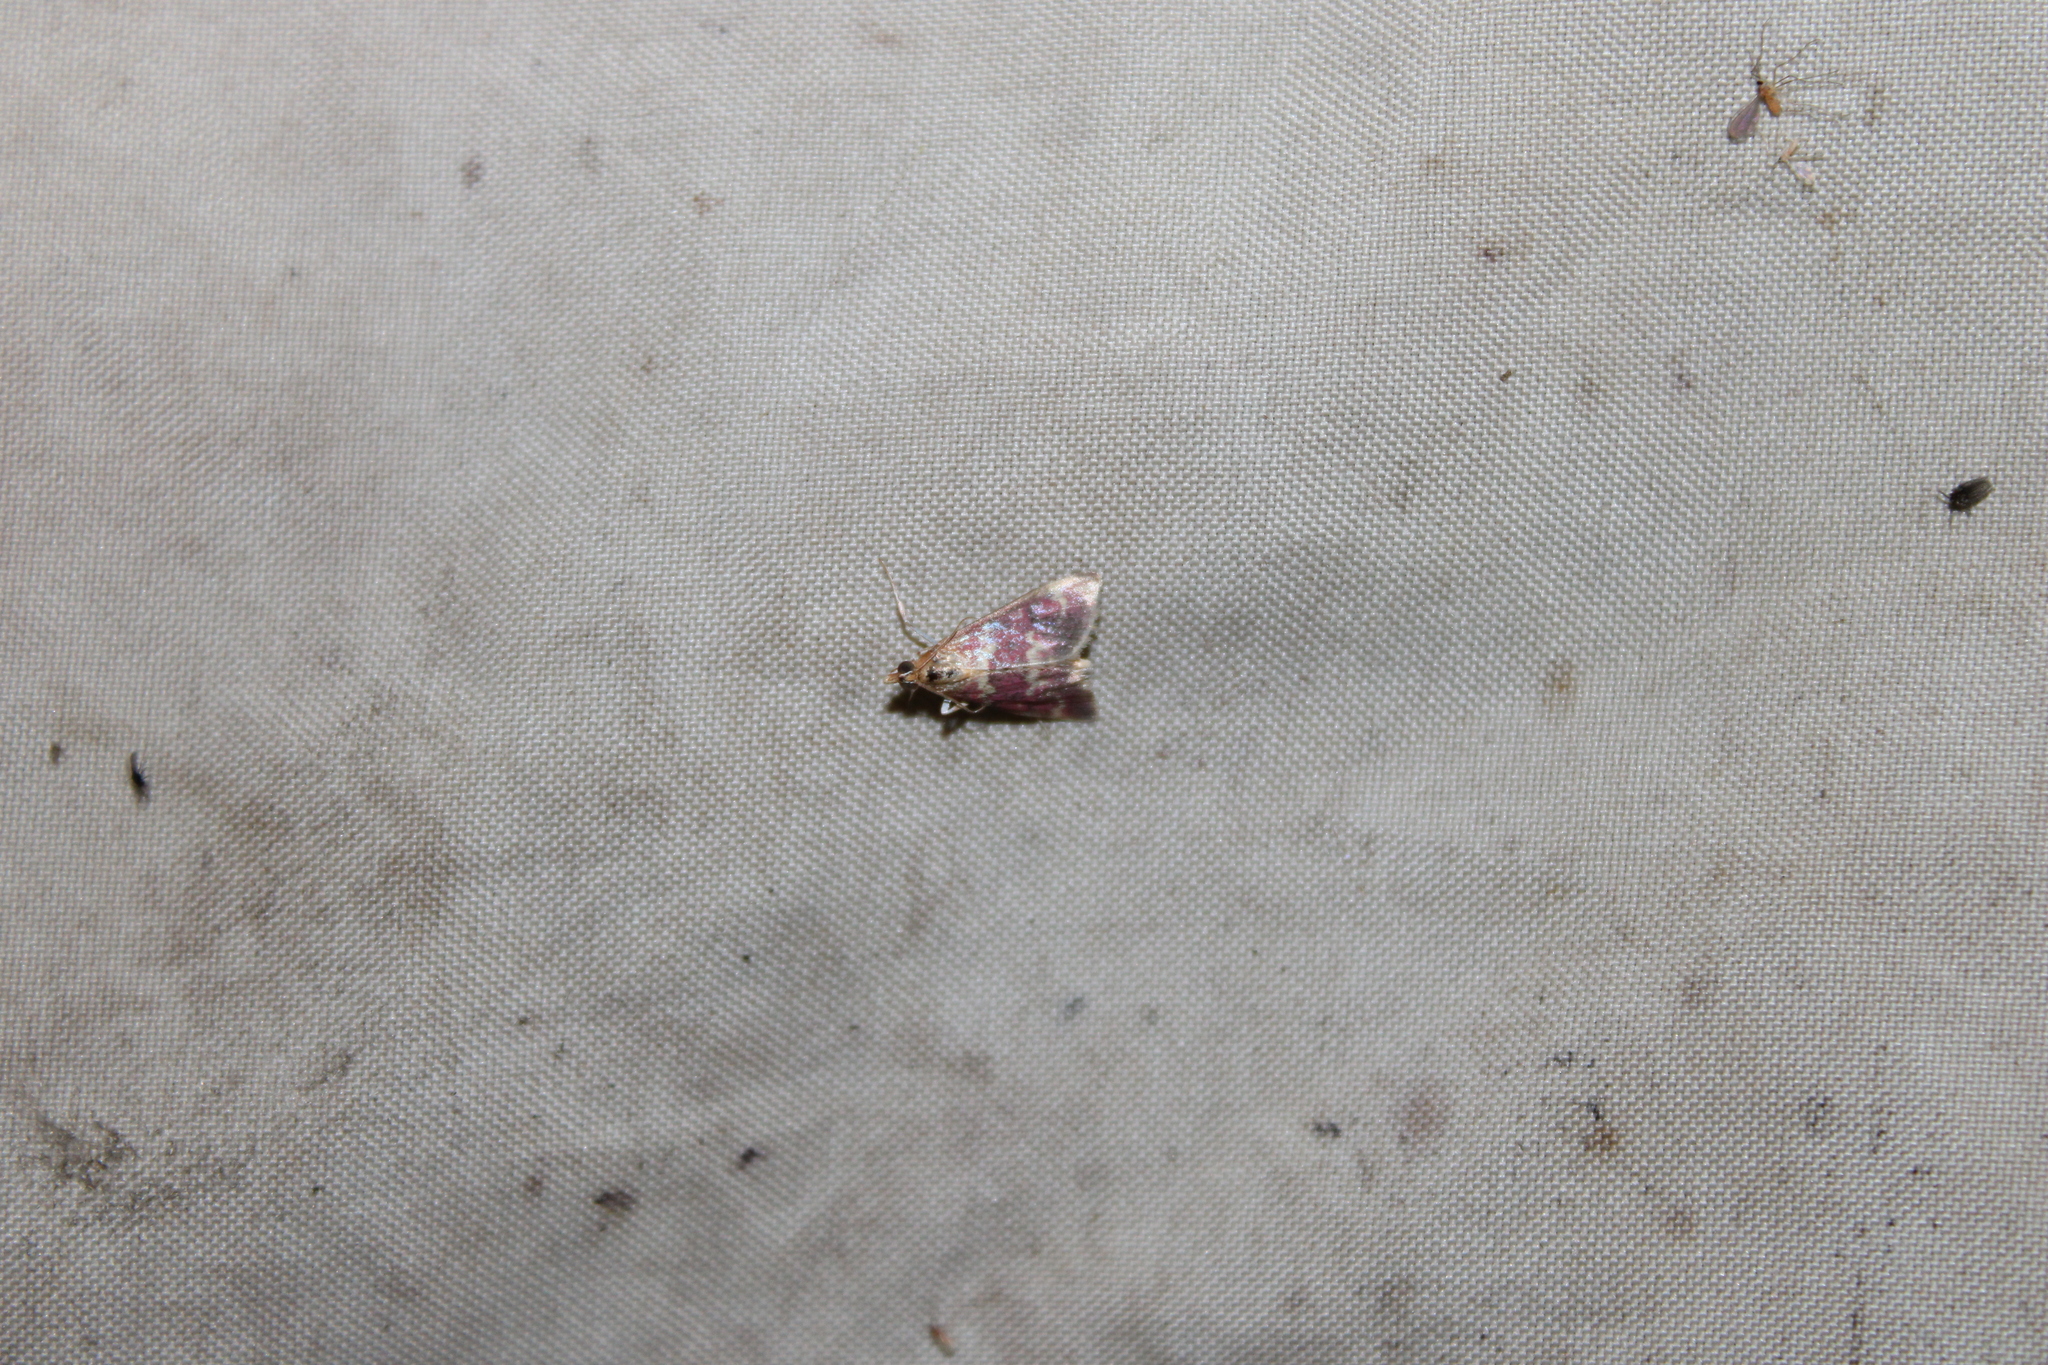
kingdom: Animalia
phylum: Arthropoda
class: Insecta
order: Lepidoptera
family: Crambidae
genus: Pyrausta
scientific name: Pyrausta signatalis
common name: Raspberry pyrausta moth
